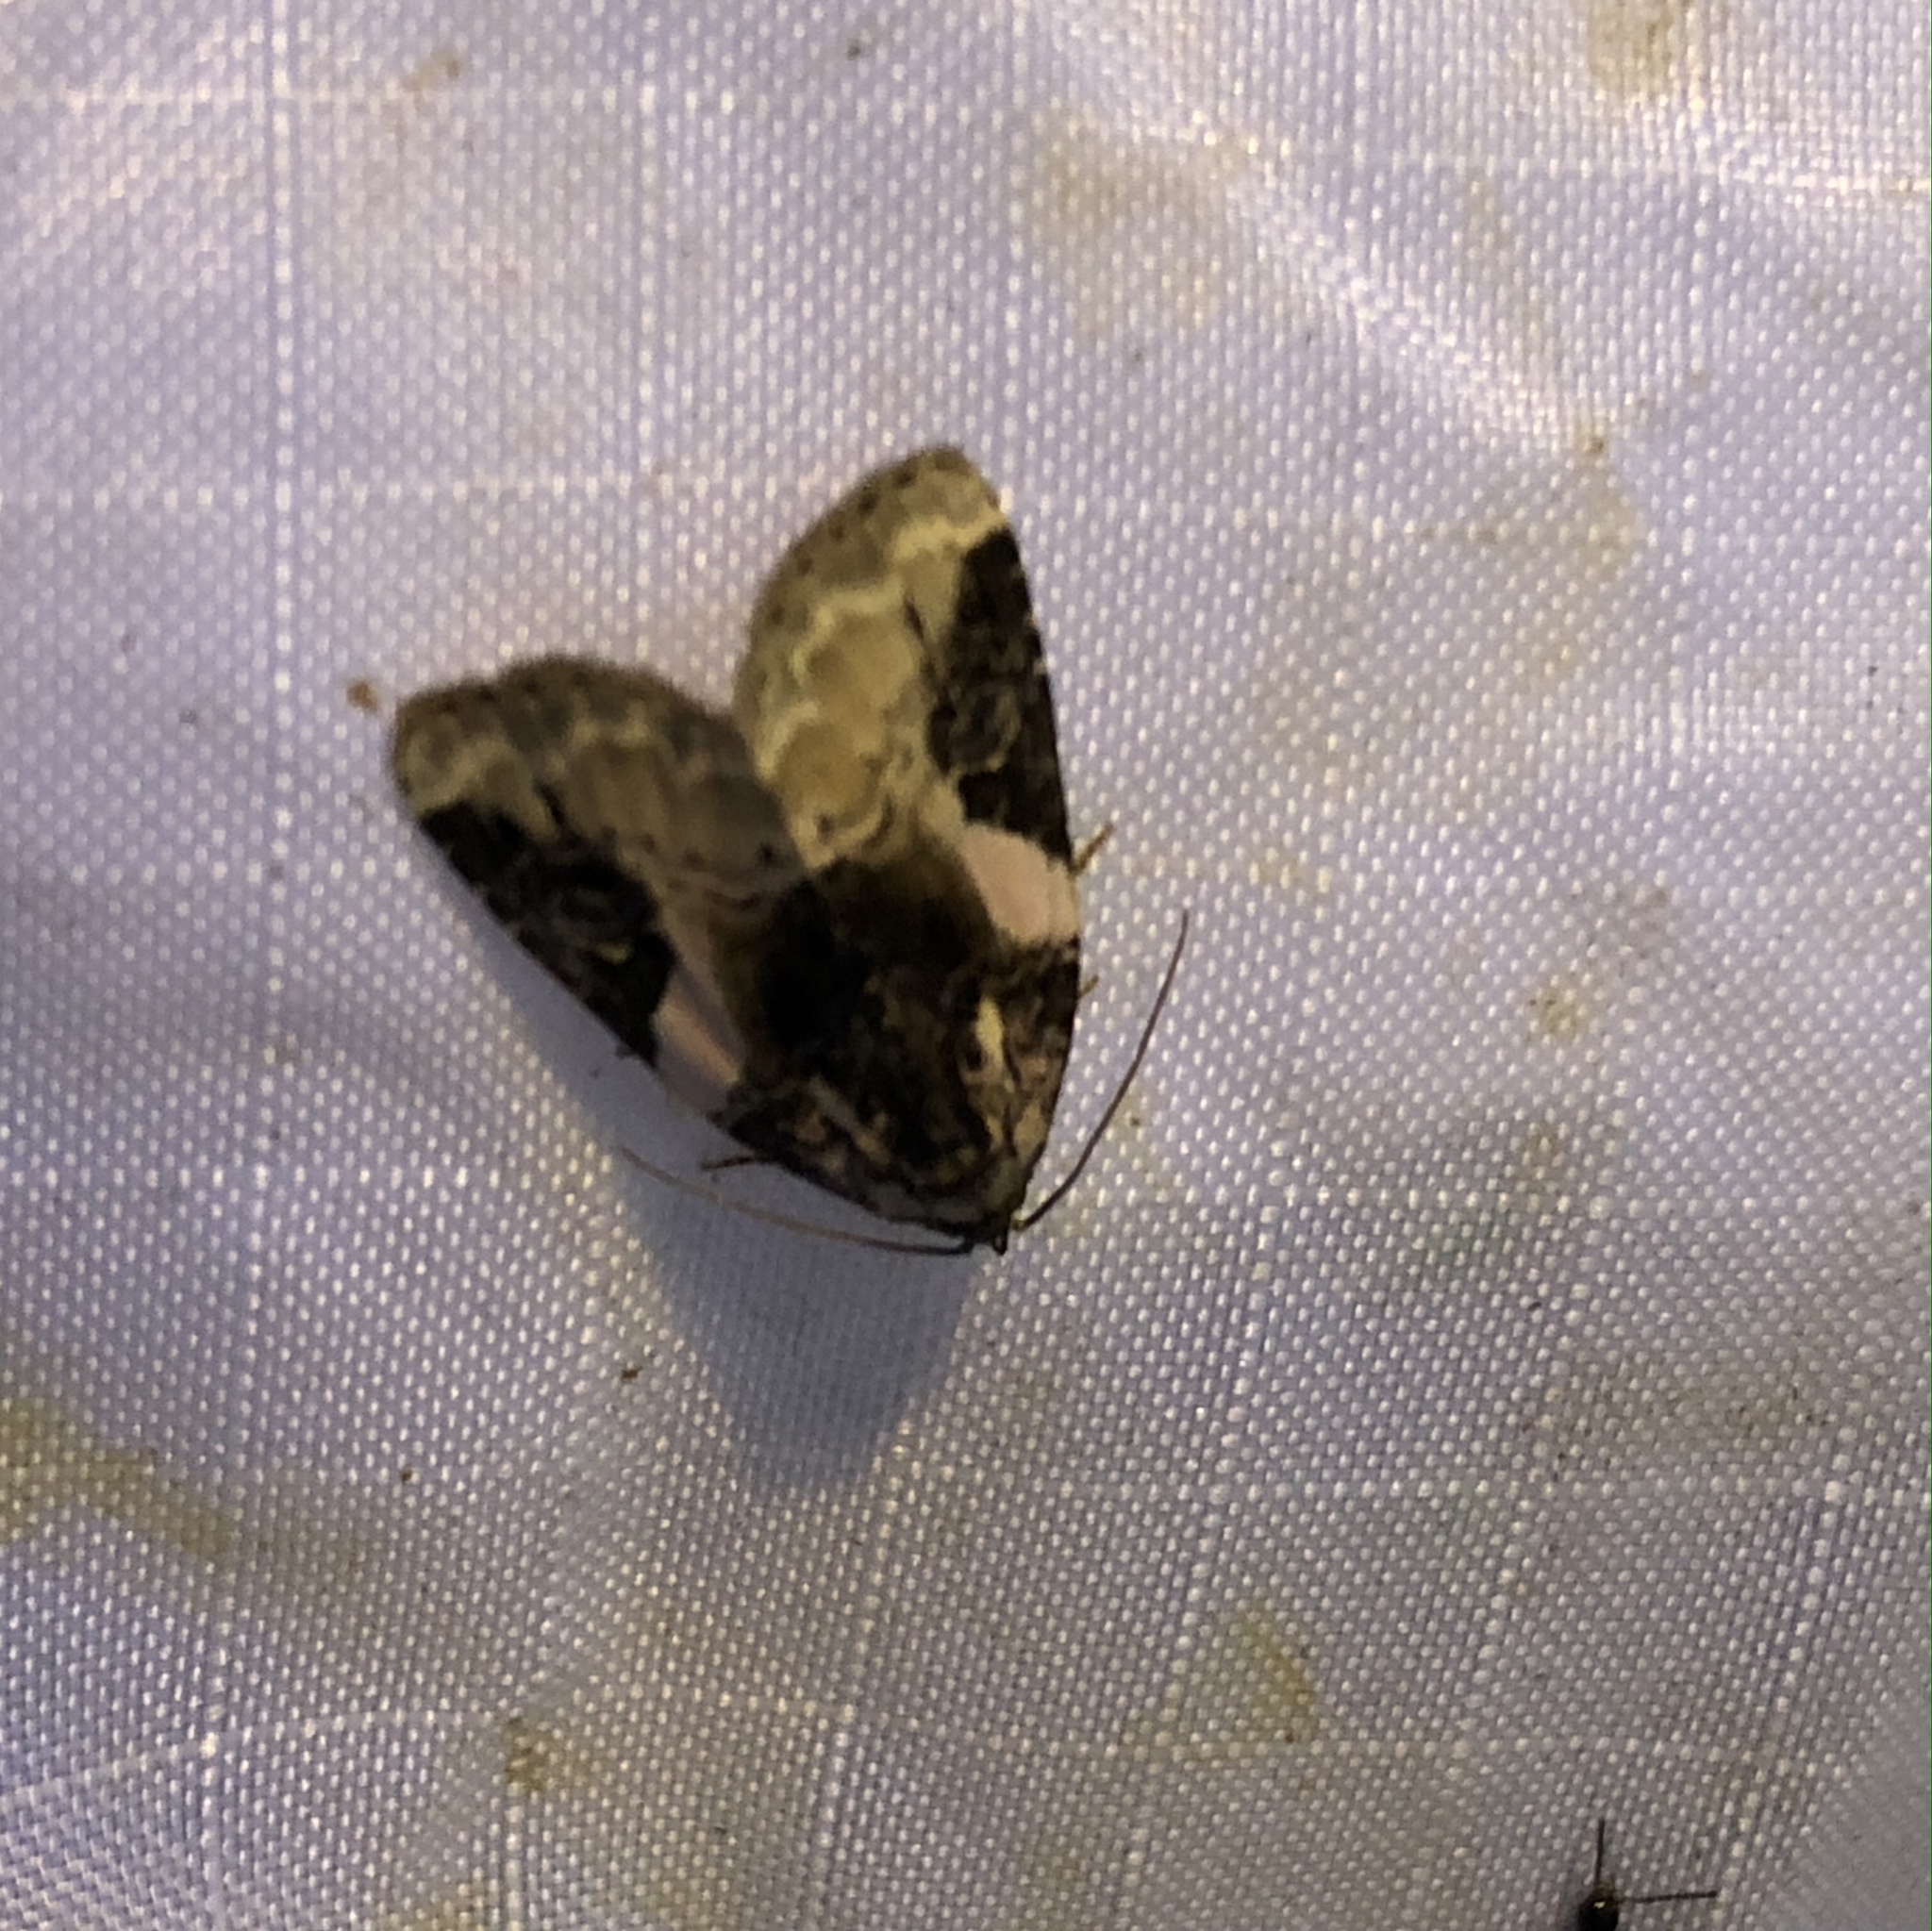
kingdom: Animalia
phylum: Arthropoda
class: Insecta
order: Lepidoptera
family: Noctuidae
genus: Pseudeustrotia
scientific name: Pseudeustrotia carneola
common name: Pink-barred lithacodia moth
